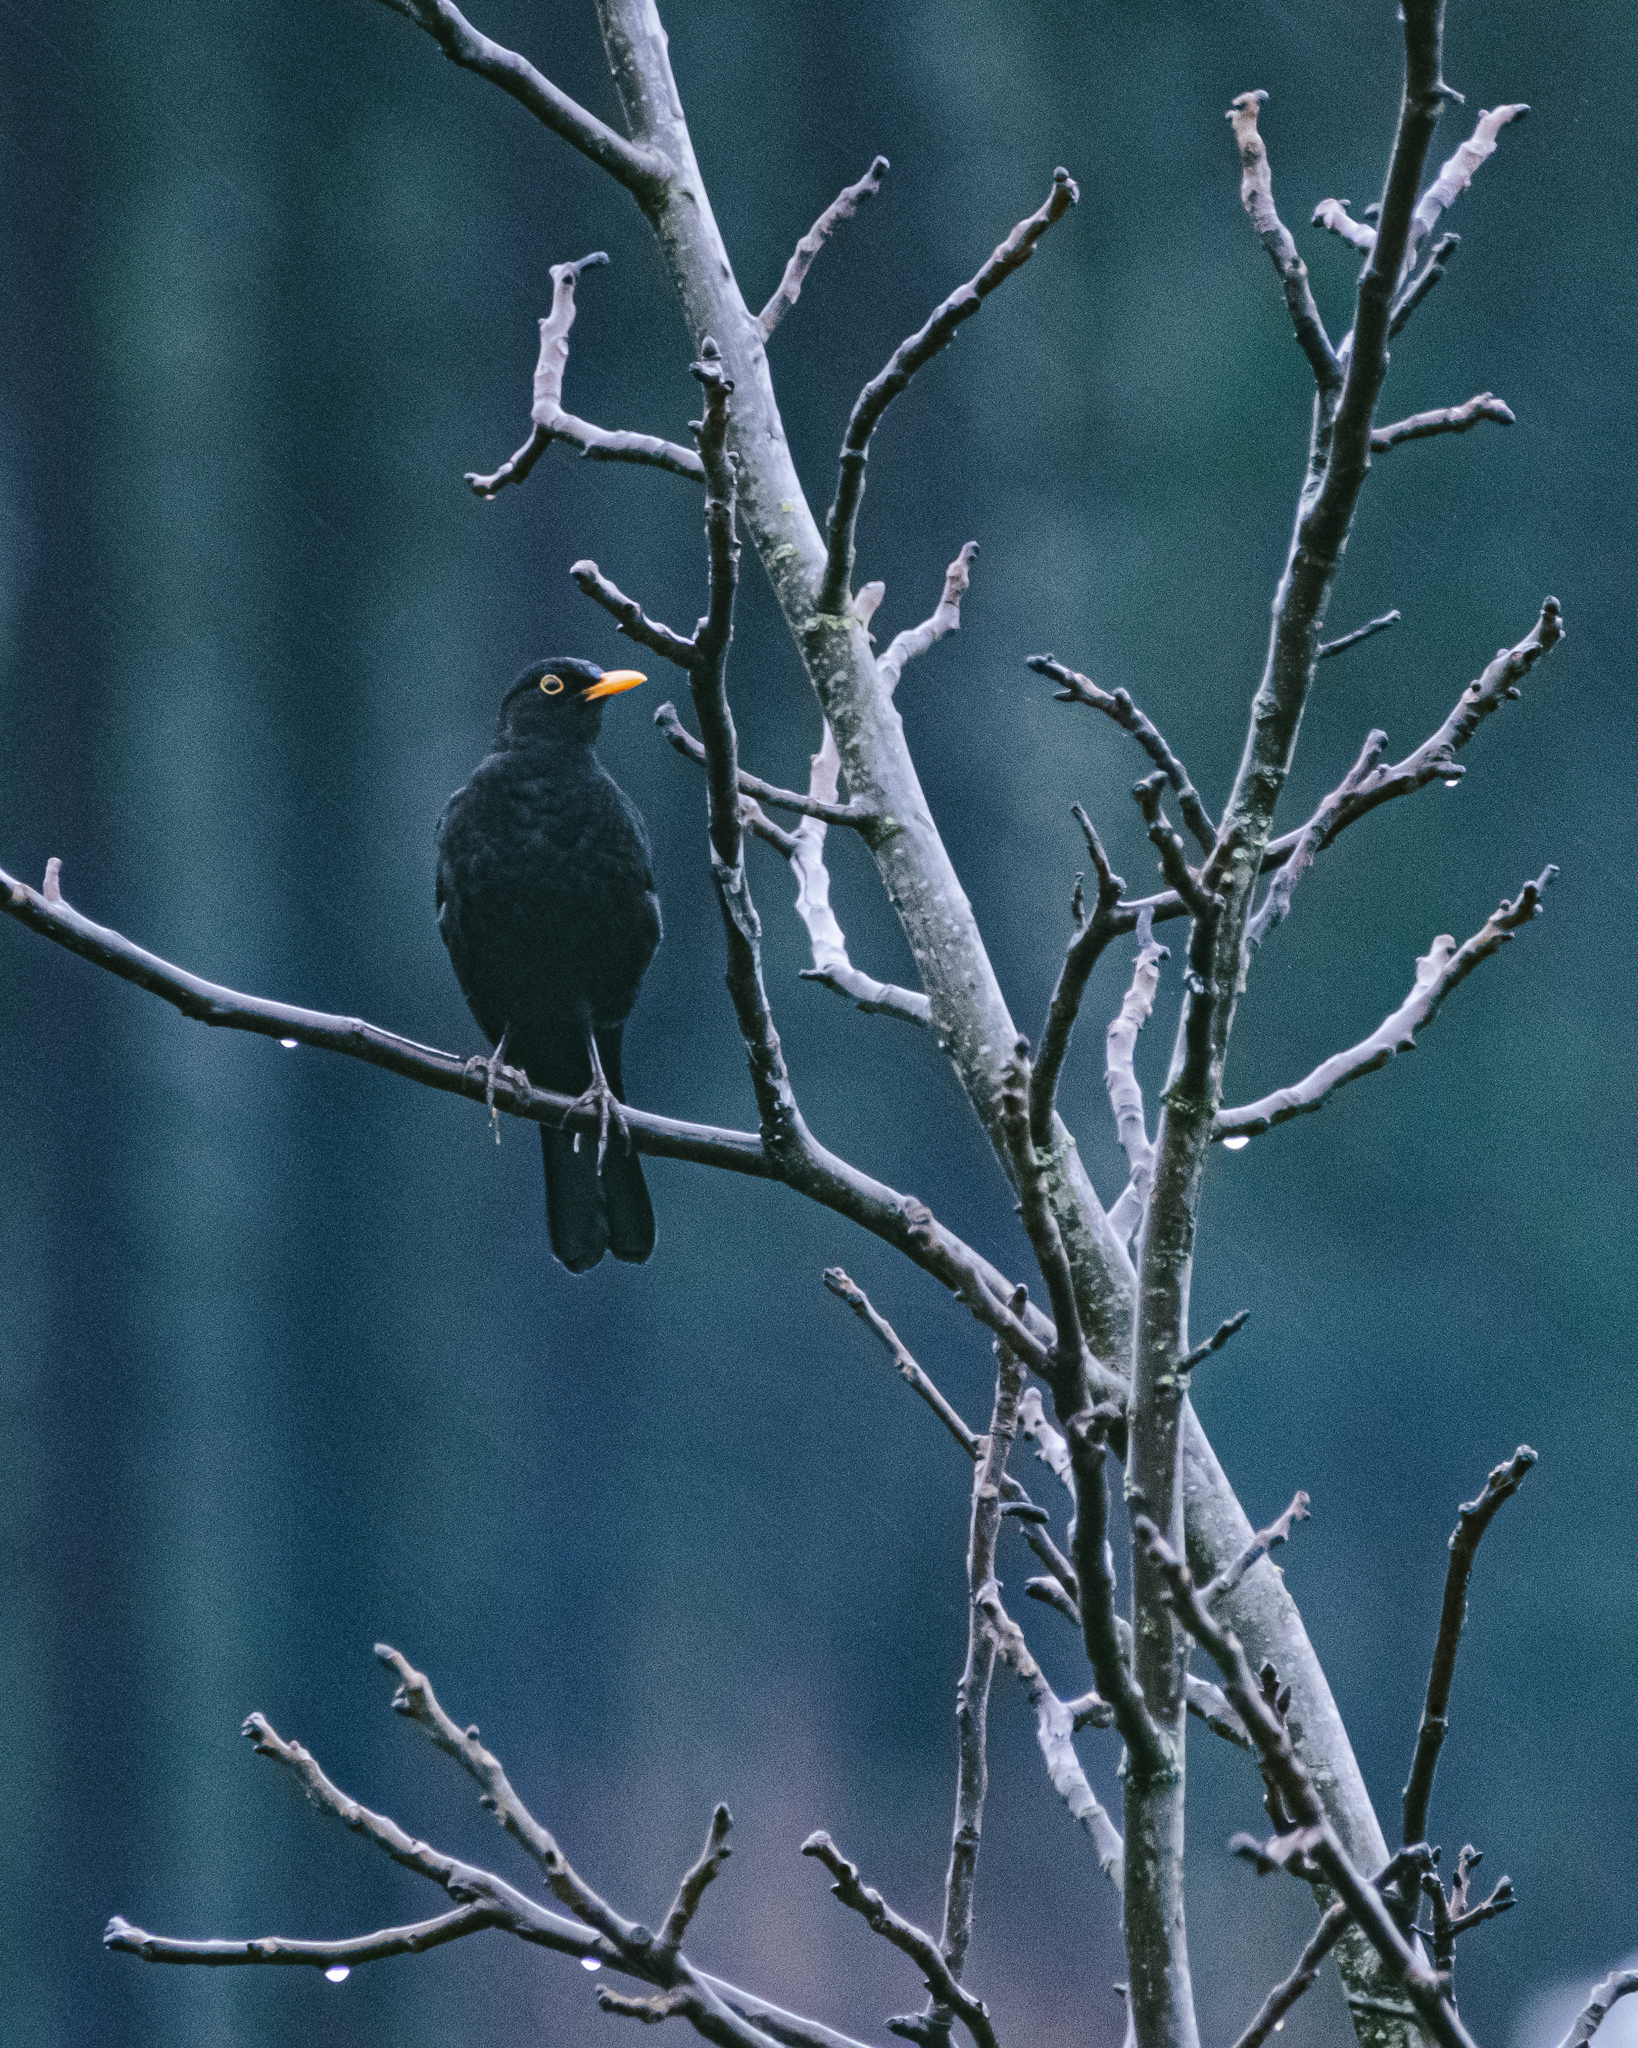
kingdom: Animalia
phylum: Chordata
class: Aves
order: Passeriformes
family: Turdidae
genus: Turdus
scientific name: Turdus merula
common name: Common blackbird
